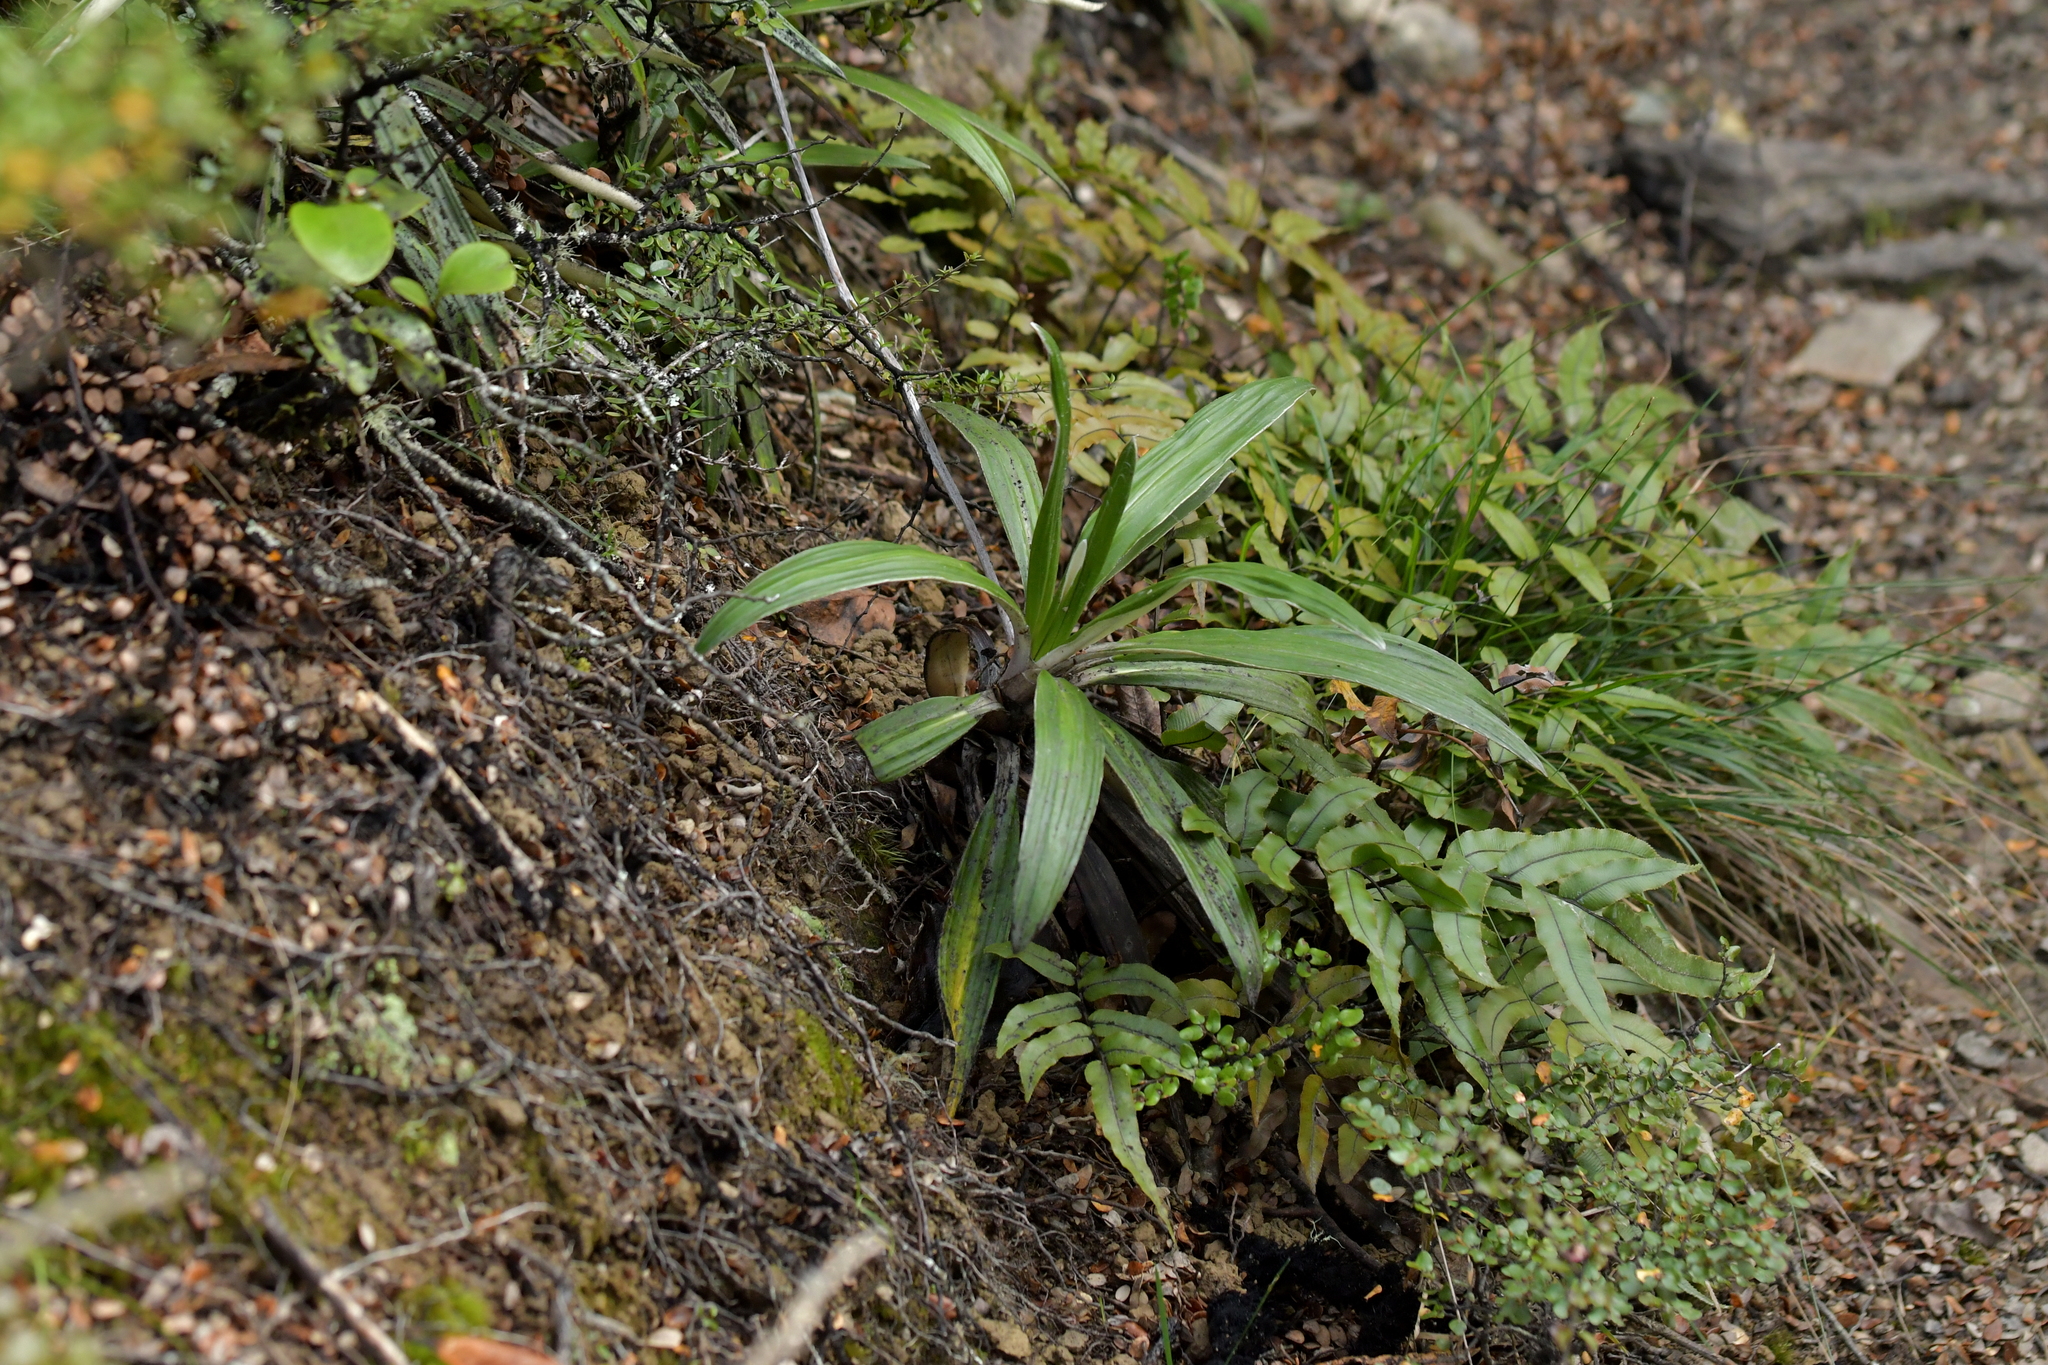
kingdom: Plantae
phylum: Tracheophyta
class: Magnoliopsida
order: Asterales
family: Asteraceae
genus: Celmisia
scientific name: Celmisia spectabilis
